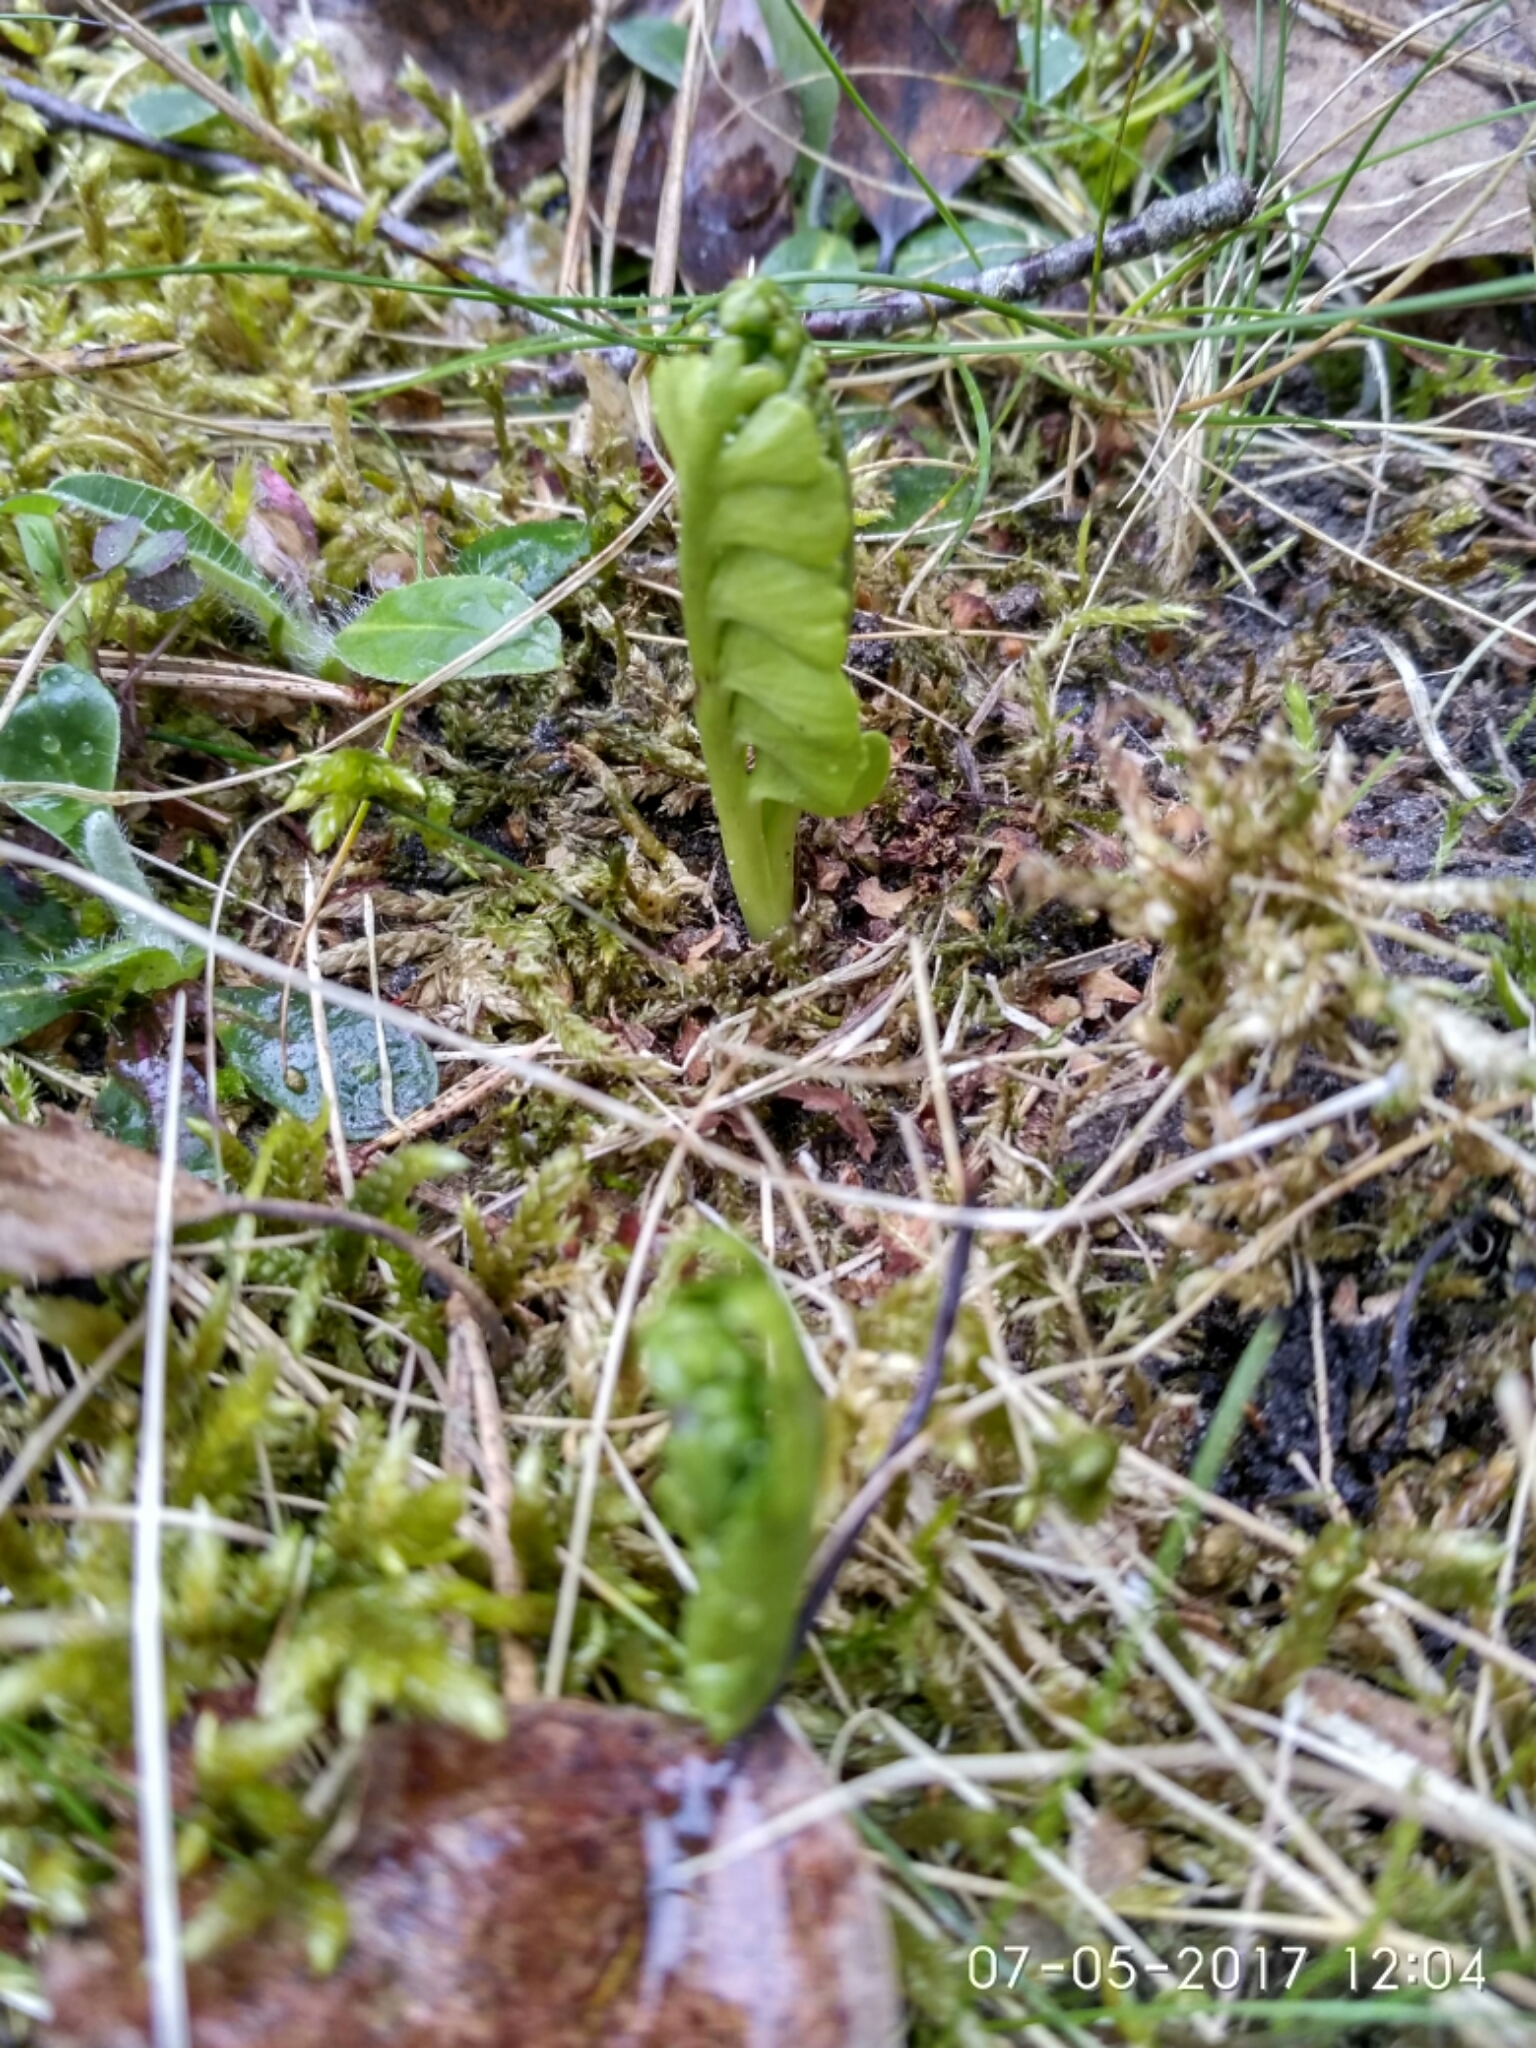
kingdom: Plantae
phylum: Tracheophyta
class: Polypodiopsida
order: Ophioglossales
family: Ophioglossaceae
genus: Botrychium
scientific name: Botrychium lunaria
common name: Moonwort
